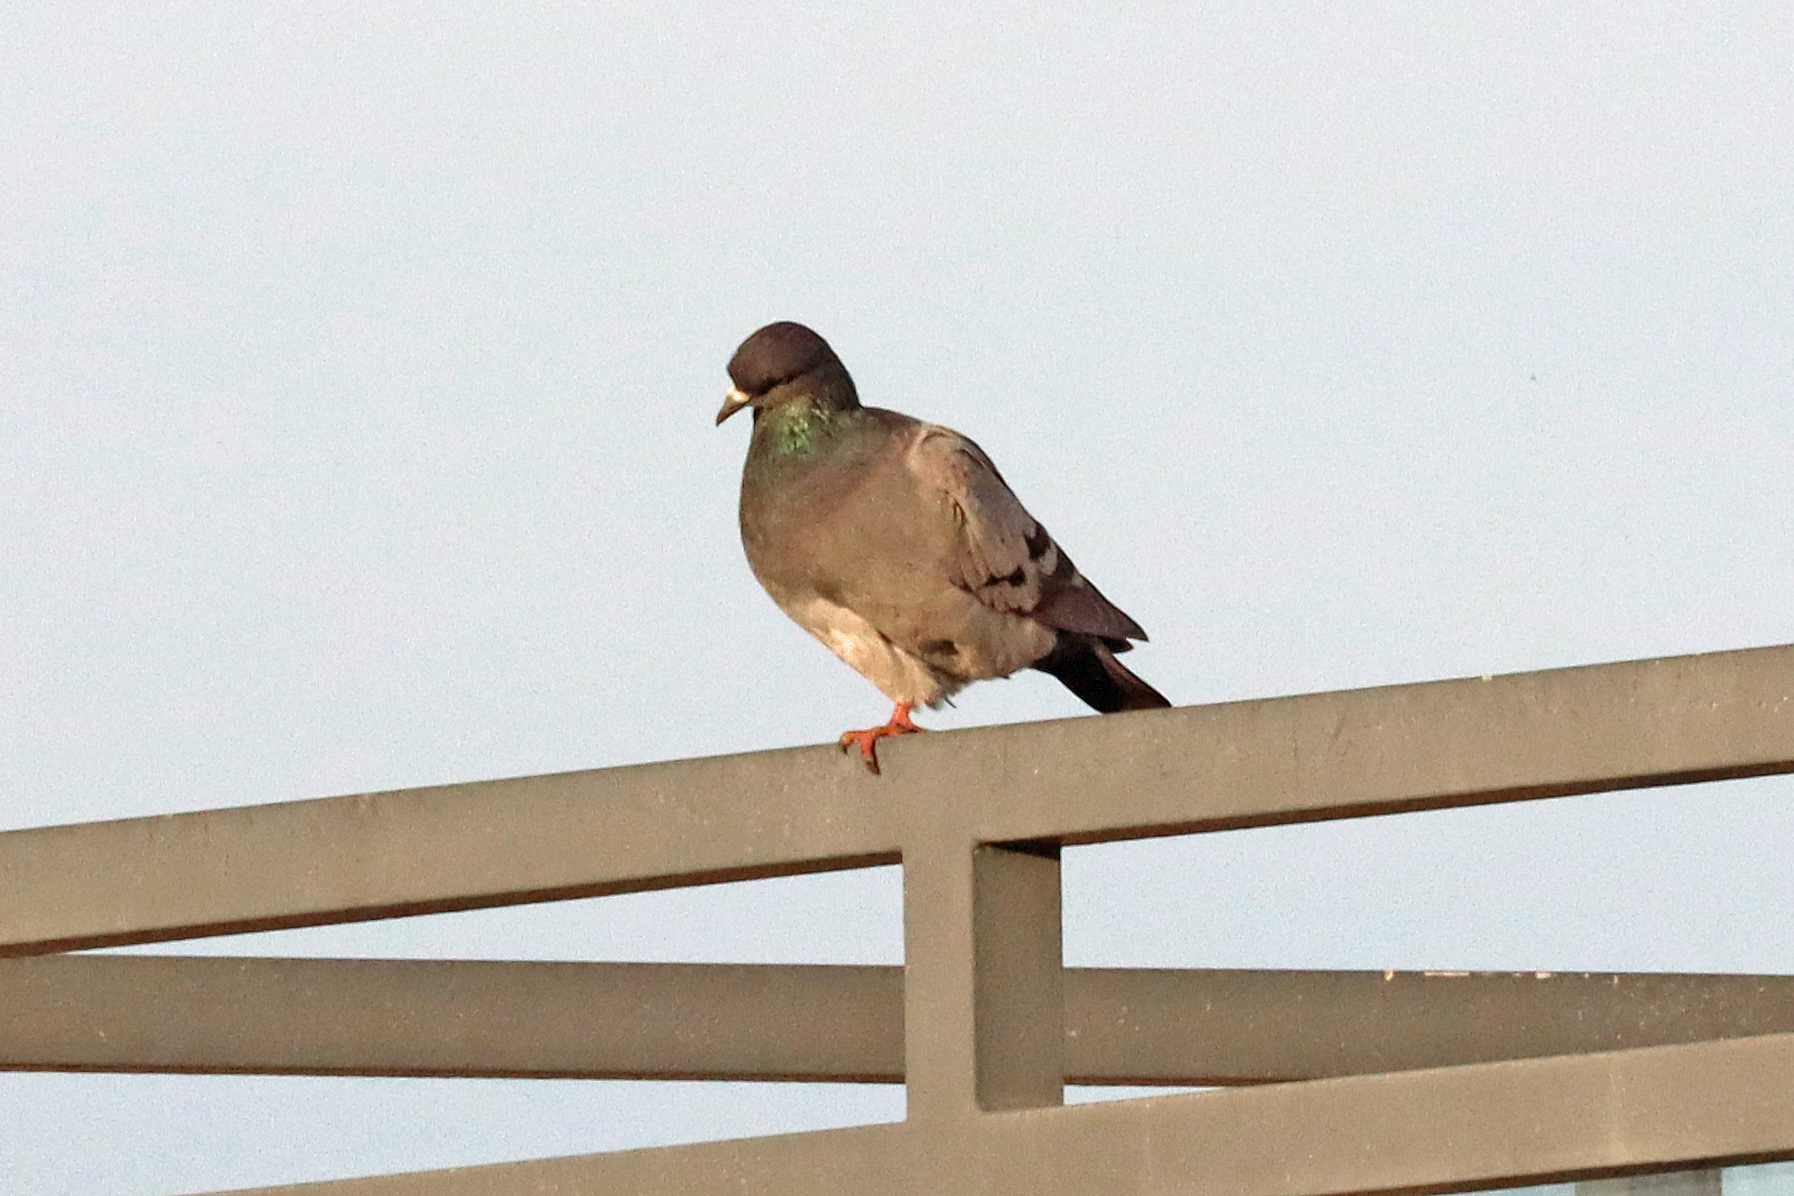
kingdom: Animalia
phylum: Chordata
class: Aves
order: Columbiformes
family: Columbidae
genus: Columba
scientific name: Columba livia
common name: Rock pigeon
